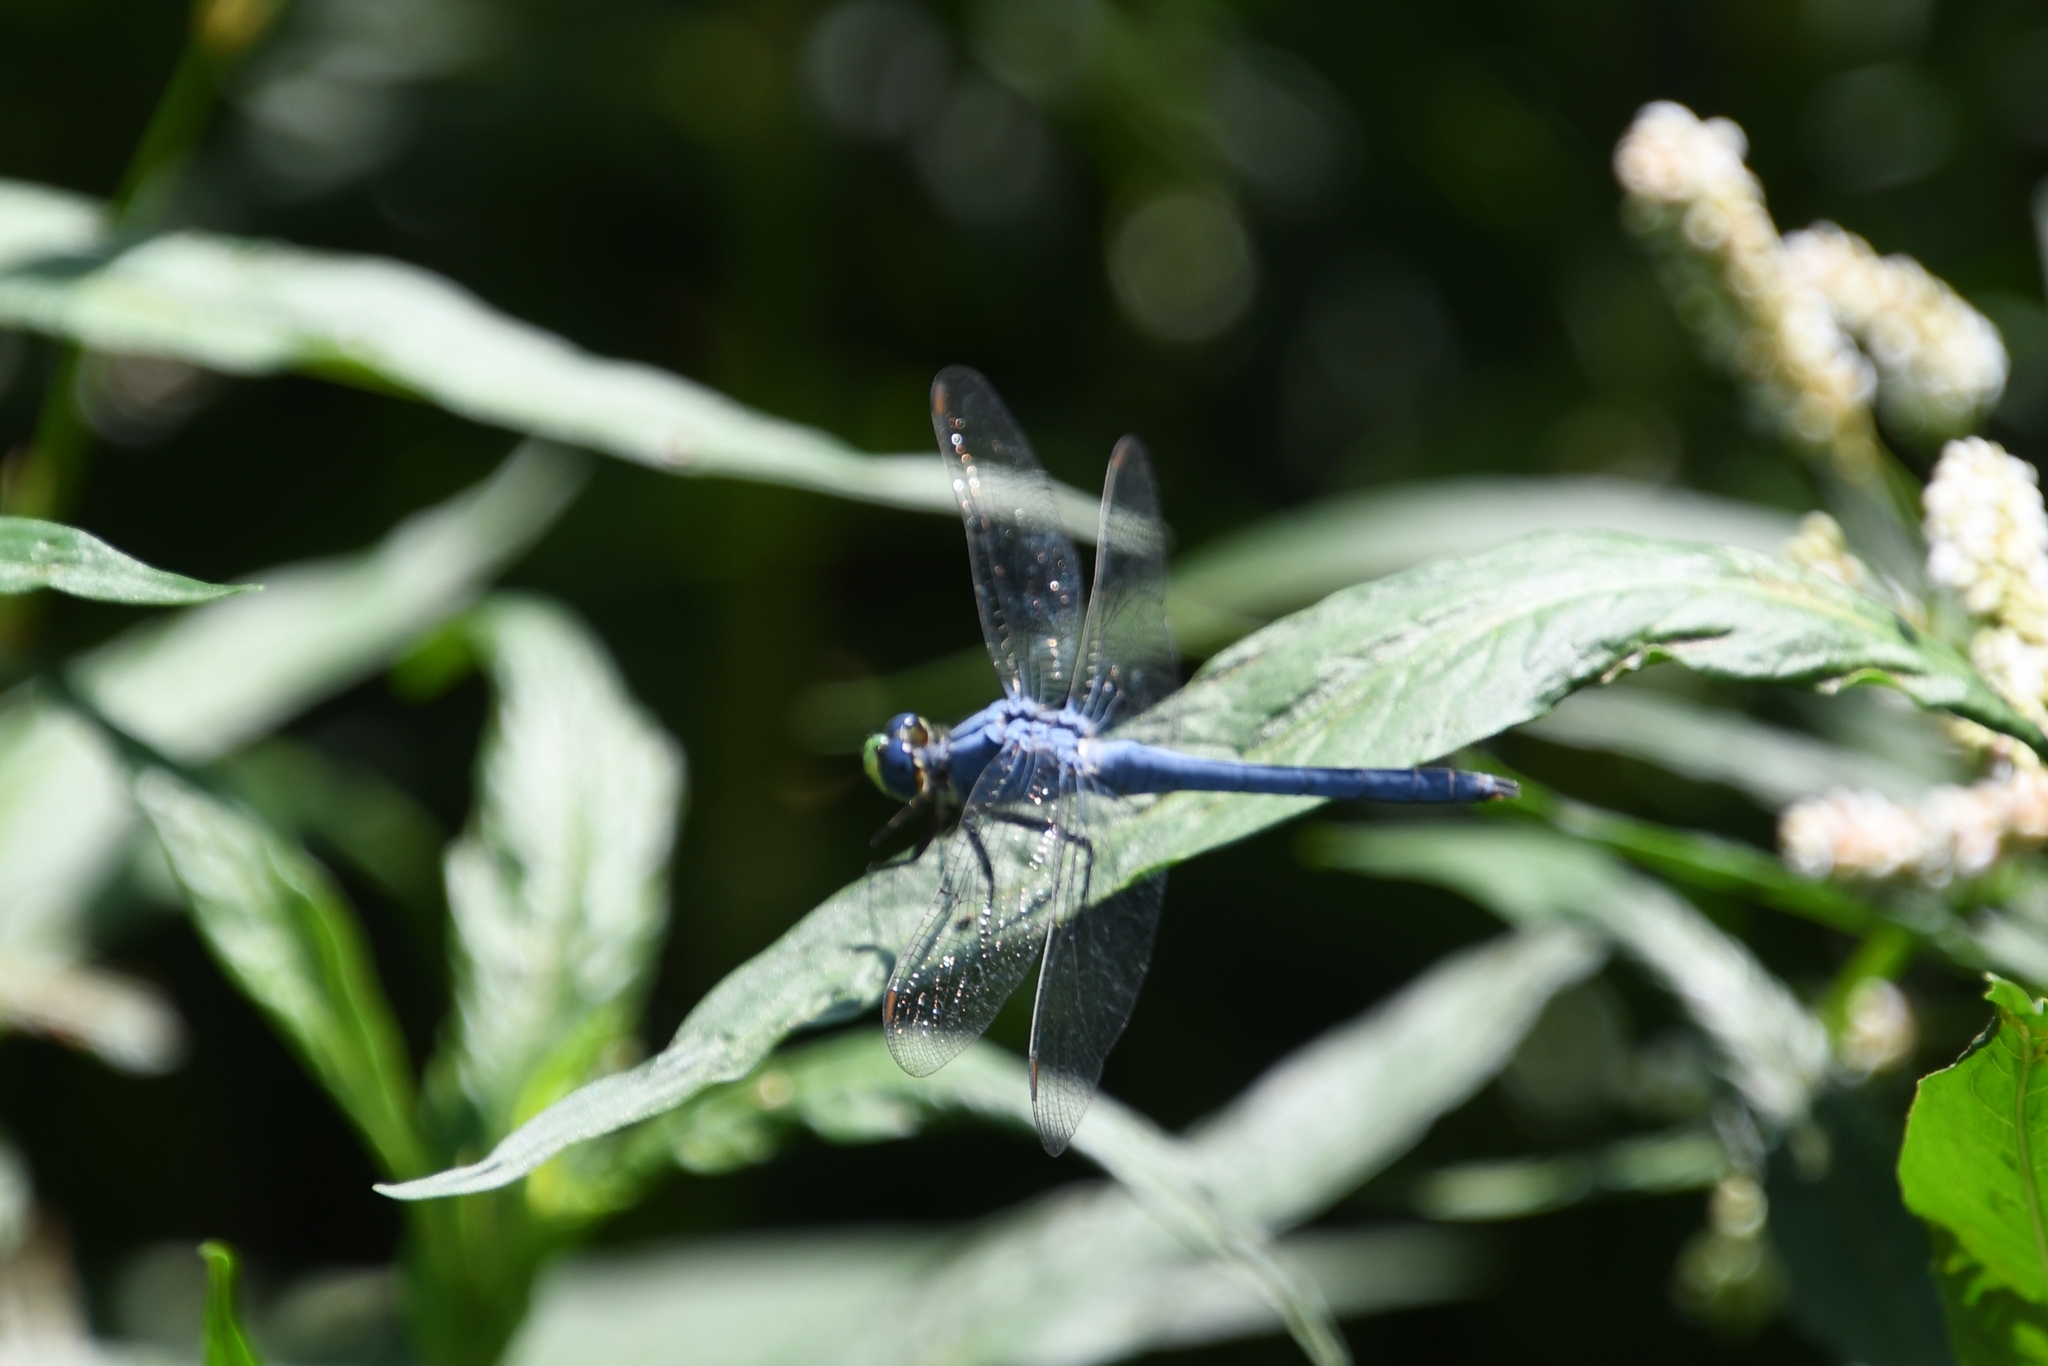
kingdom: Animalia
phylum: Arthropoda
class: Insecta
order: Odonata
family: Libellulidae
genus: Erythemis
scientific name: Erythemis collocata
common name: Western pondhawk
